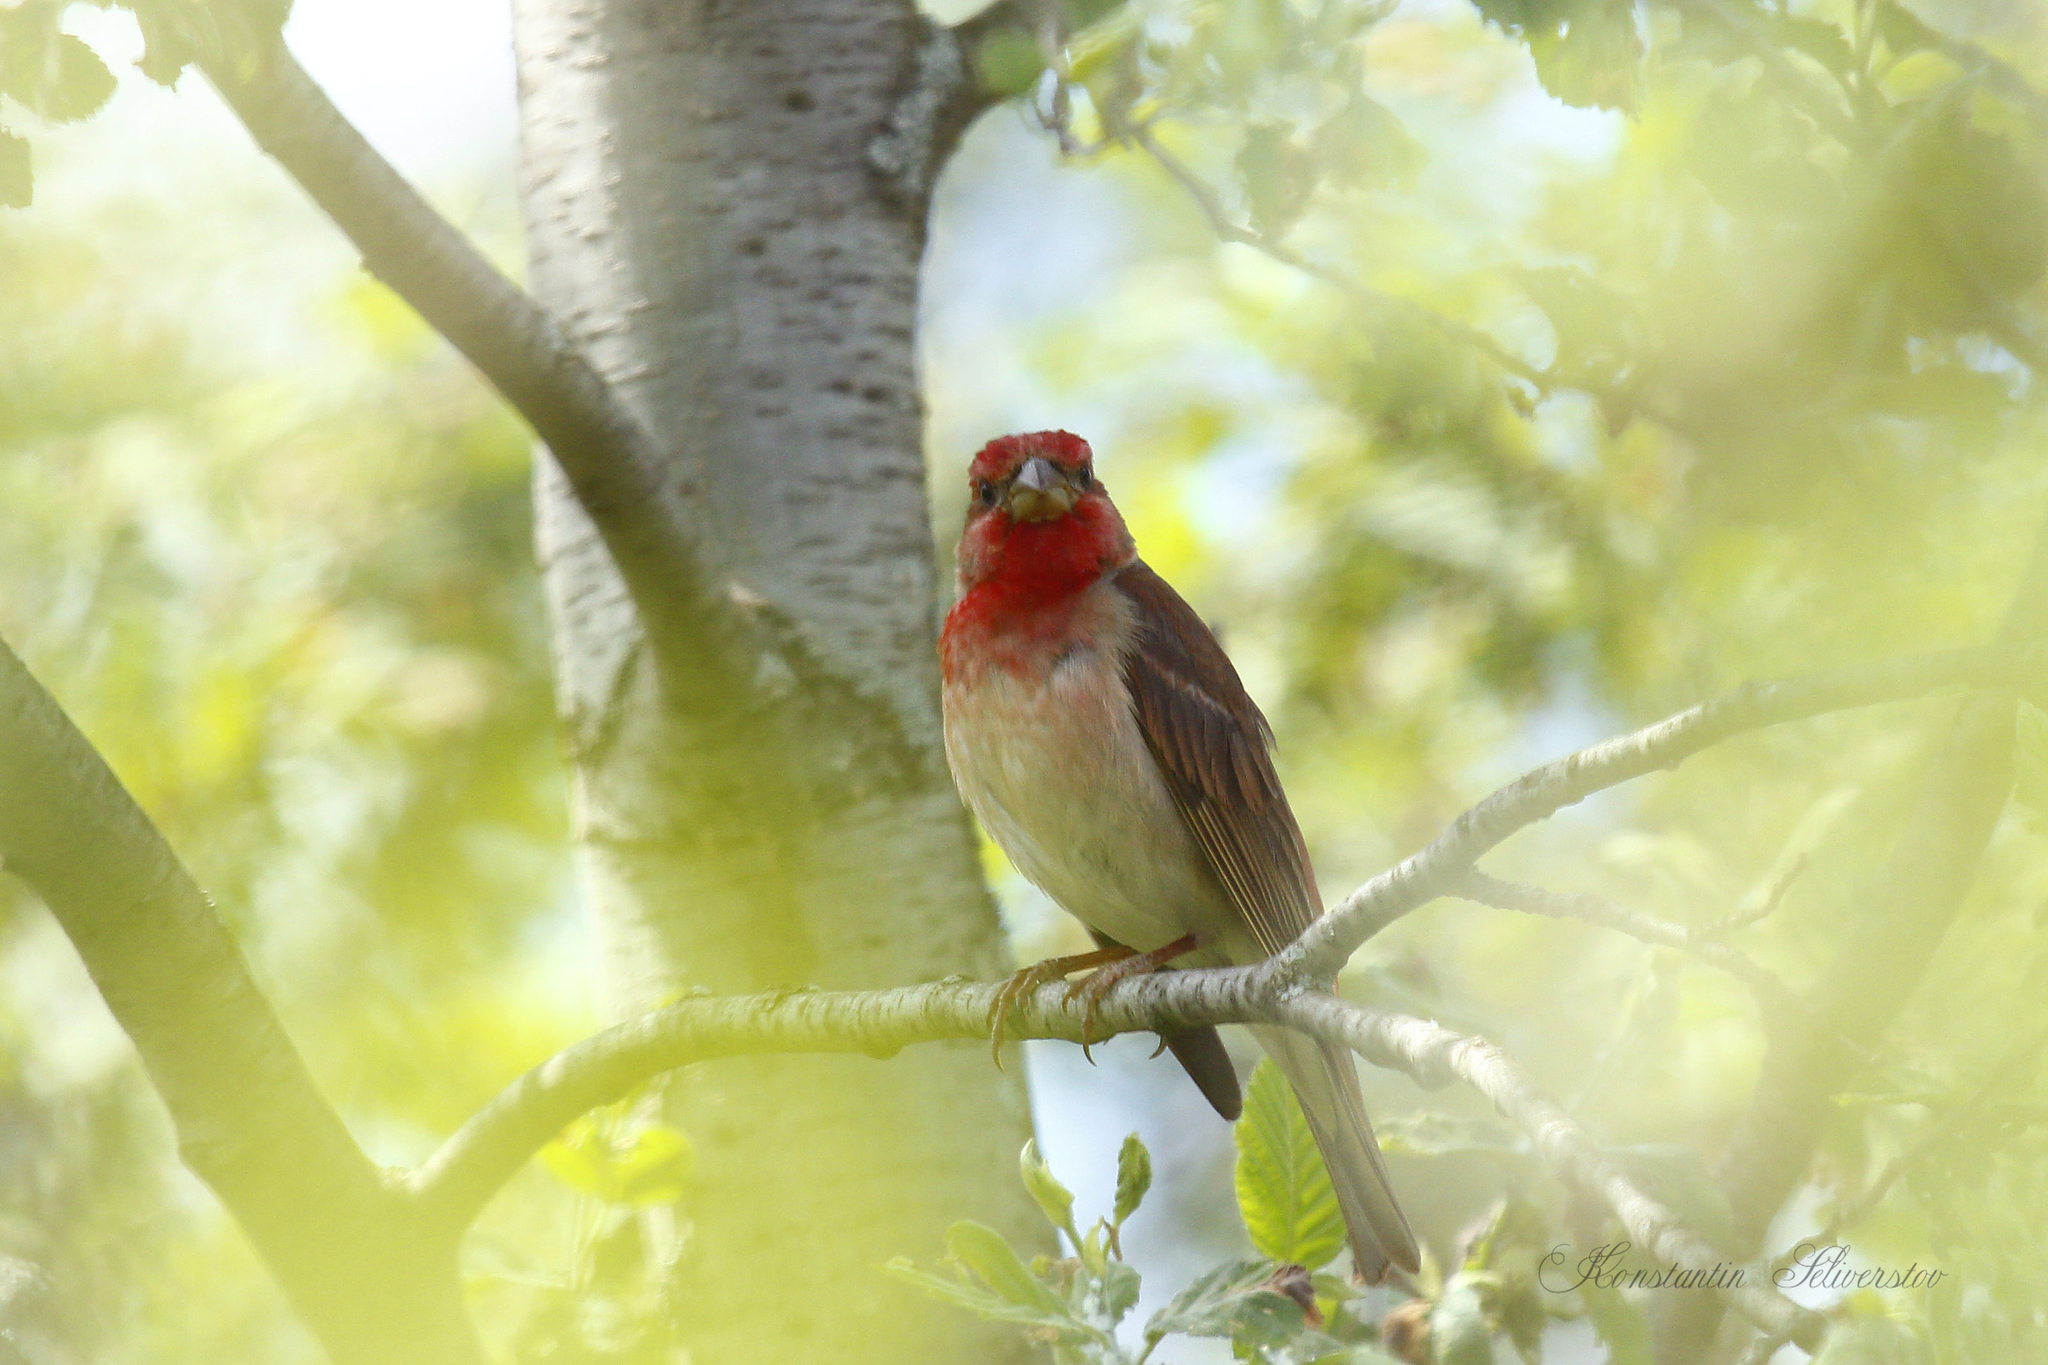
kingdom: Animalia
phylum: Chordata
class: Aves
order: Passeriformes
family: Fringillidae
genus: Carpodacus
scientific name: Carpodacus erythrinus
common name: Common rosefinch
